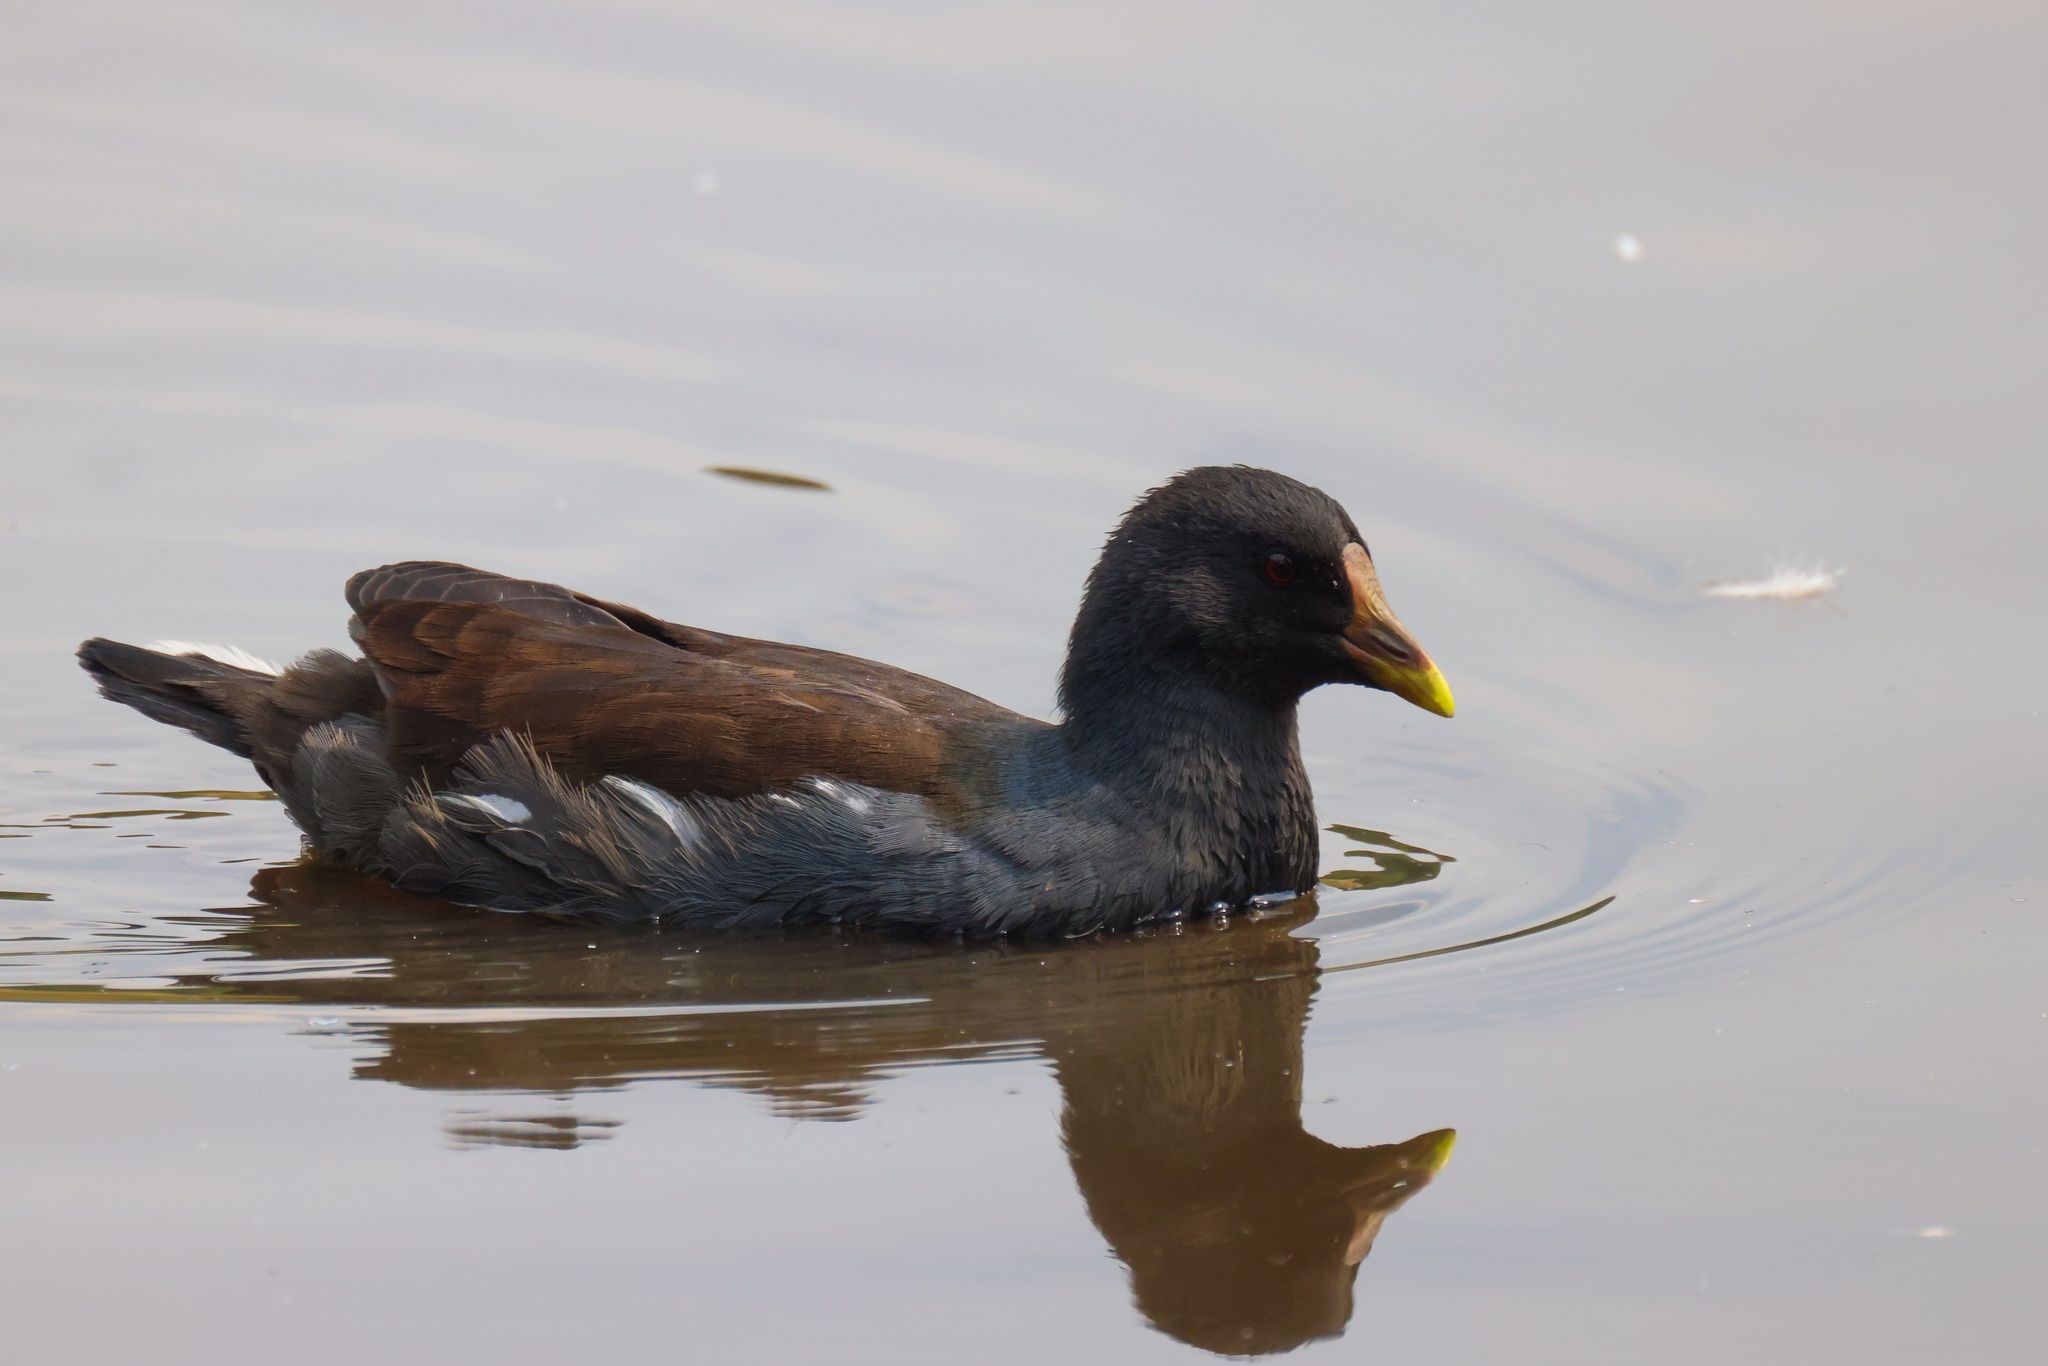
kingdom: Animalia
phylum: Chordata
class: Aves
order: Gruiformes
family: Rallidae
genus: Gallinula
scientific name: Gallinula chloropus
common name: Common moorhen
